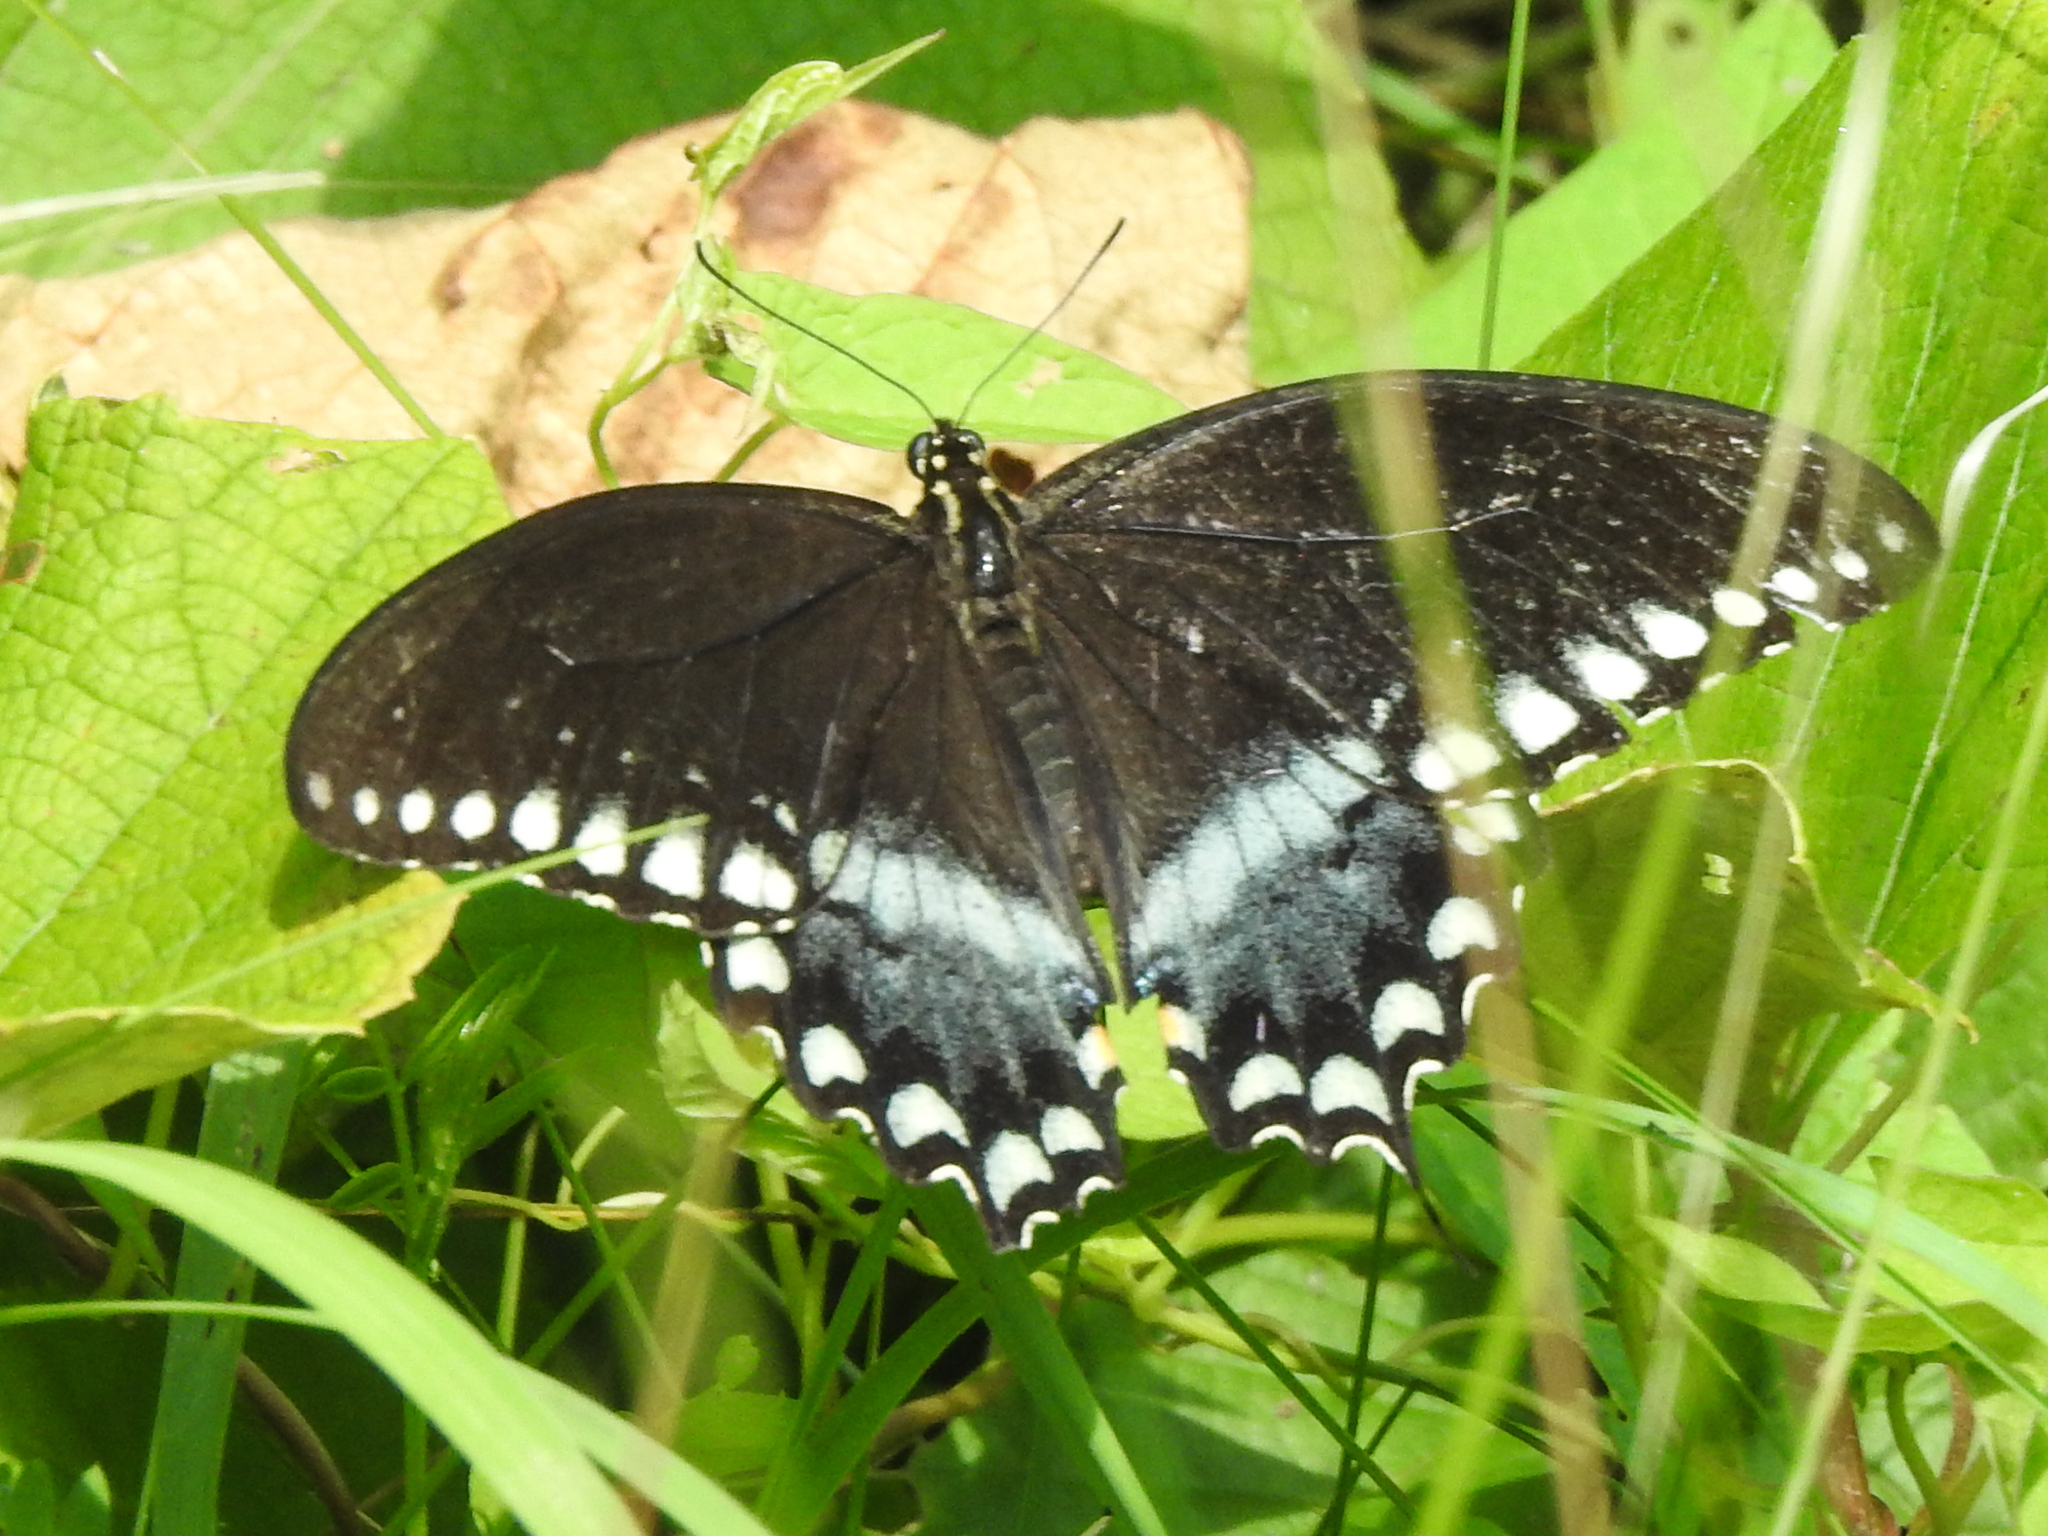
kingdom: Animalia
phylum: Arthropoda
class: Insecta
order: Lepidoptera
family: Papilionidae
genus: Papilio
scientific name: Papilio troilus
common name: Spicebush swallowtail
